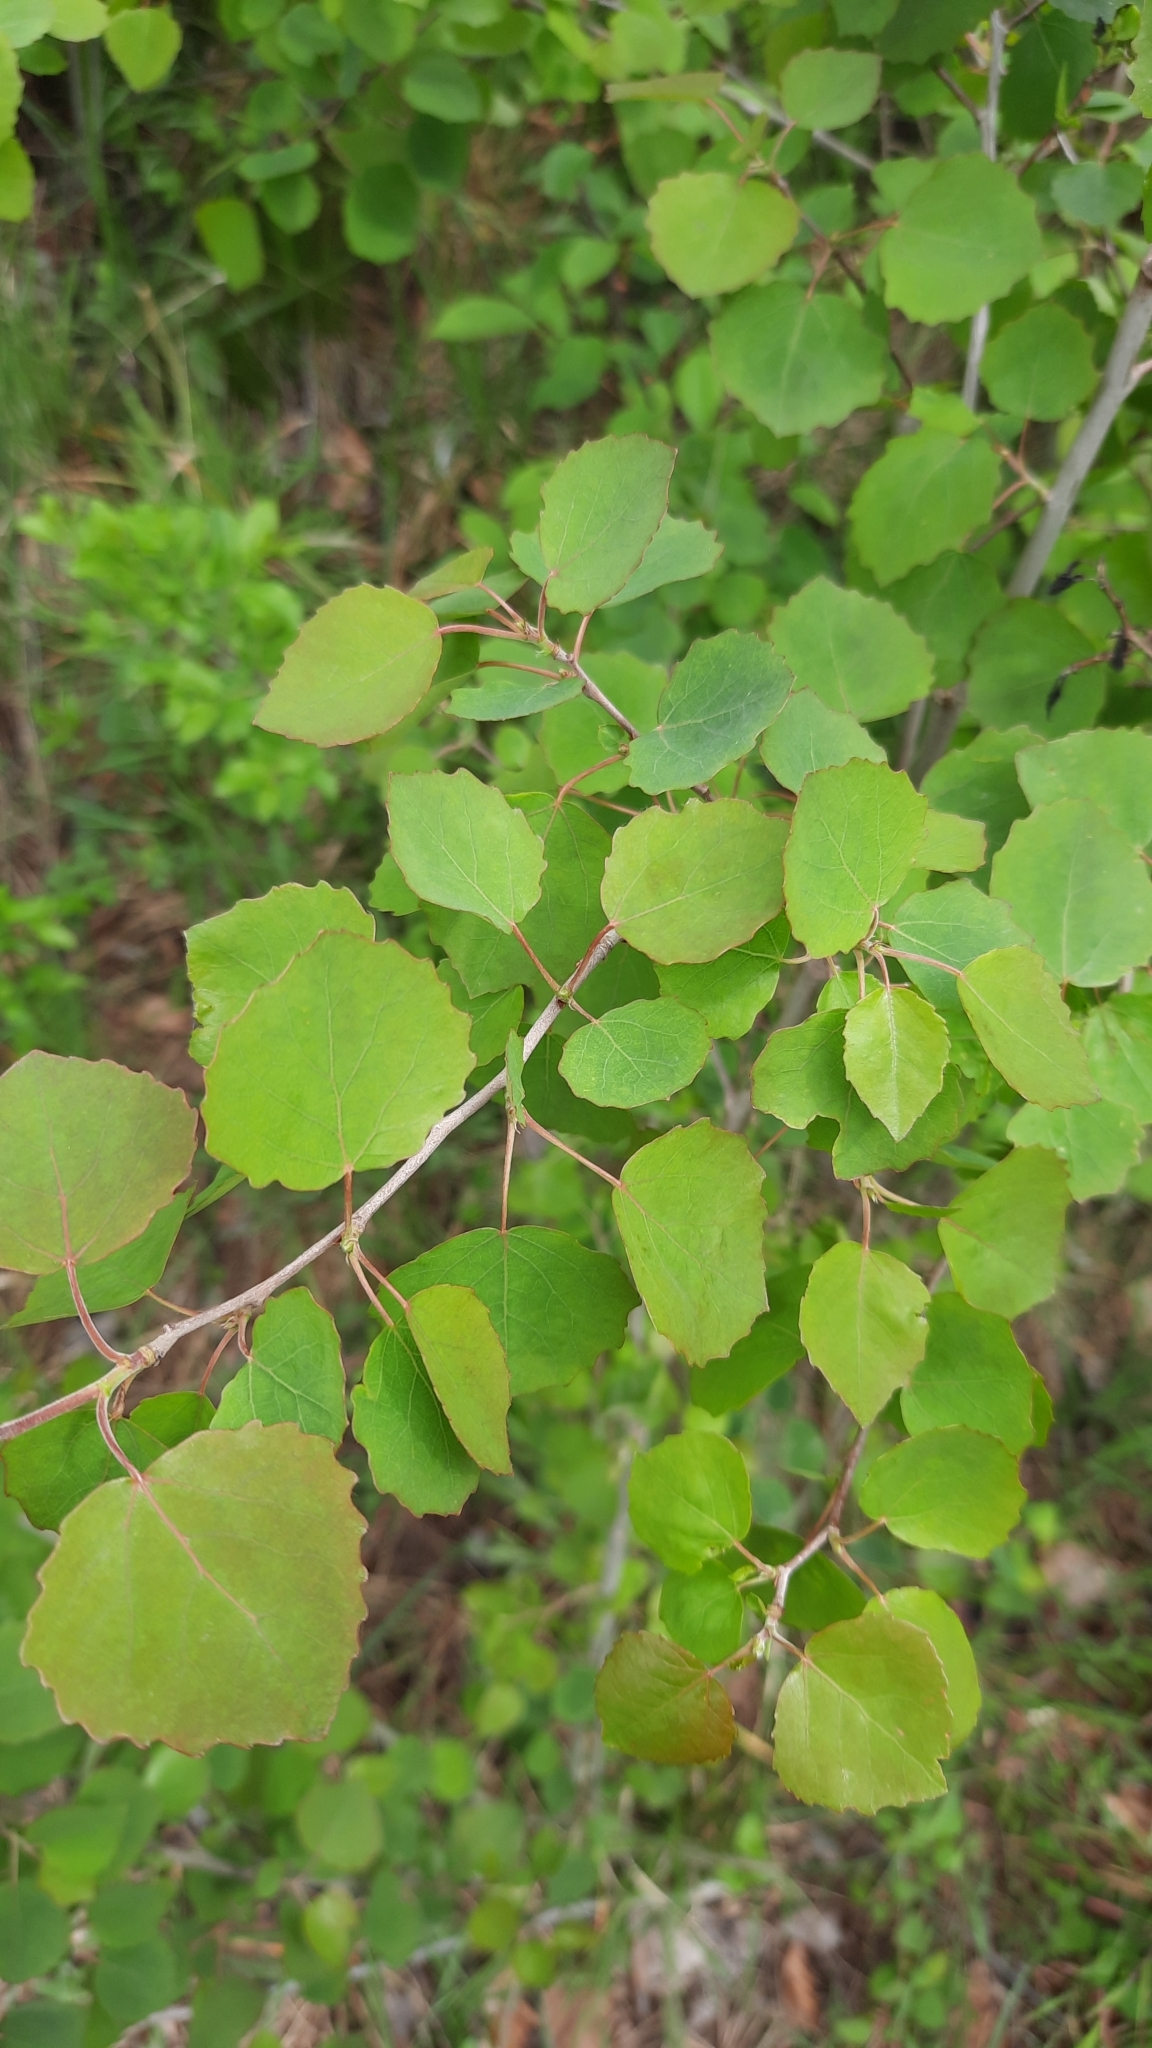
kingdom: Plantae
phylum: Tracheophyta
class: Magnoliopsida
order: Malpighiales
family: Salicaceae
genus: Populus
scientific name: Populus tremula
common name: European aspen
